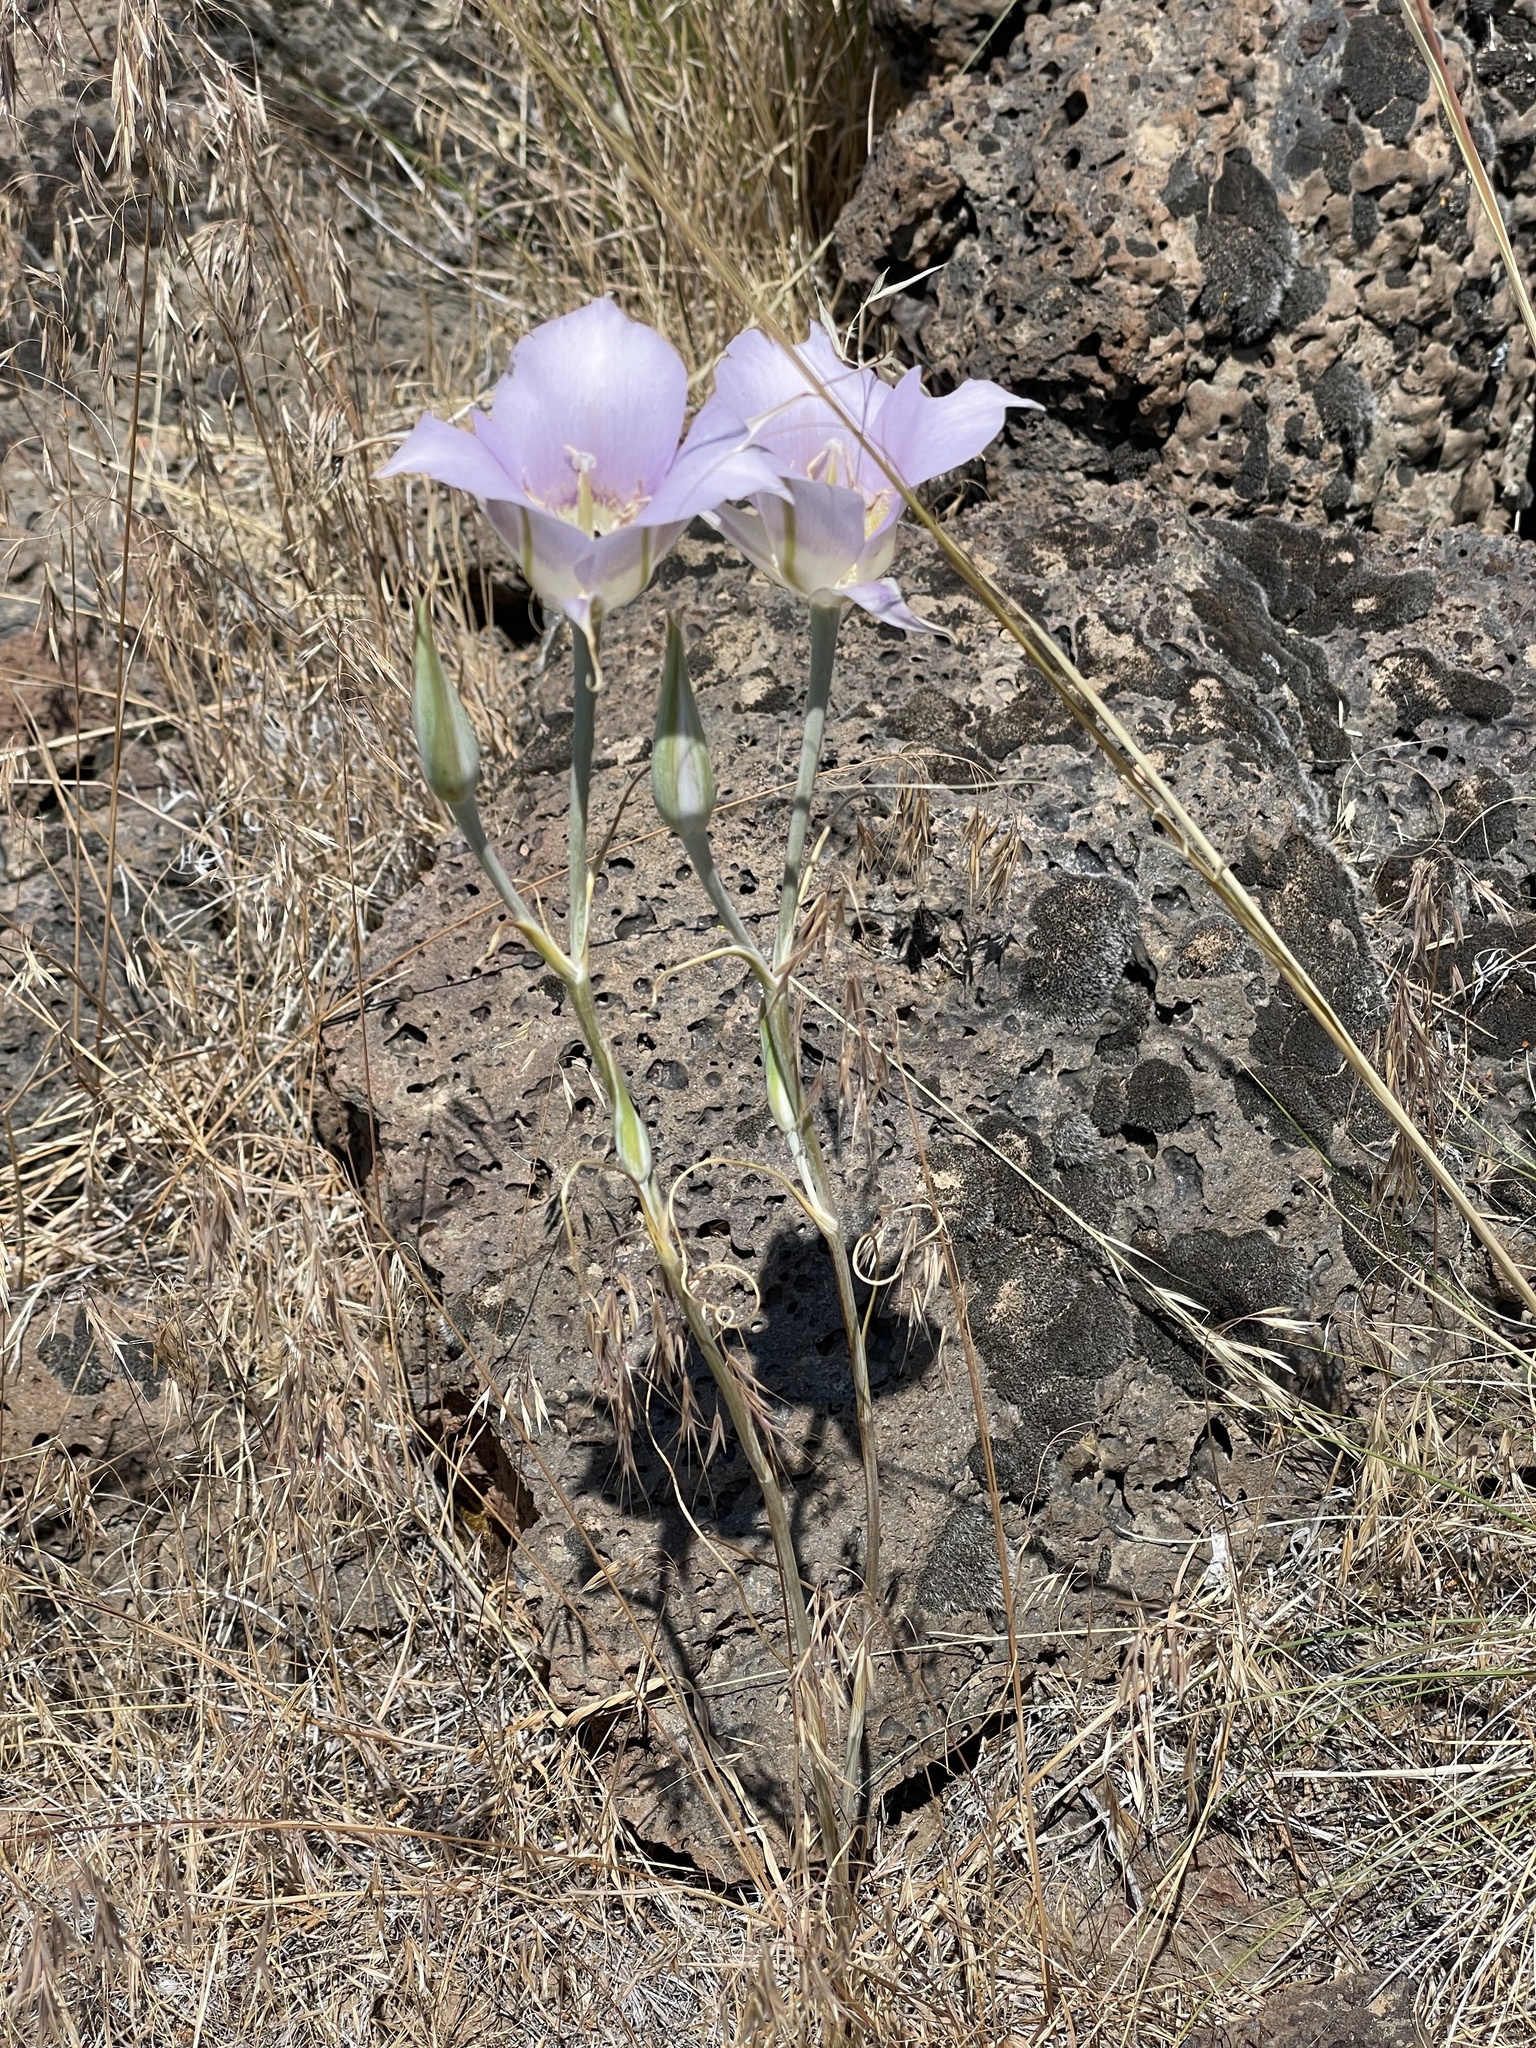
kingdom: Plantae
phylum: Tracheophyta
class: Liliopsida
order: Liliales
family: Liliaceae
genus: Calochortus
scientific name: Calochortus macrocarpus
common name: Green-band mariposa lily
